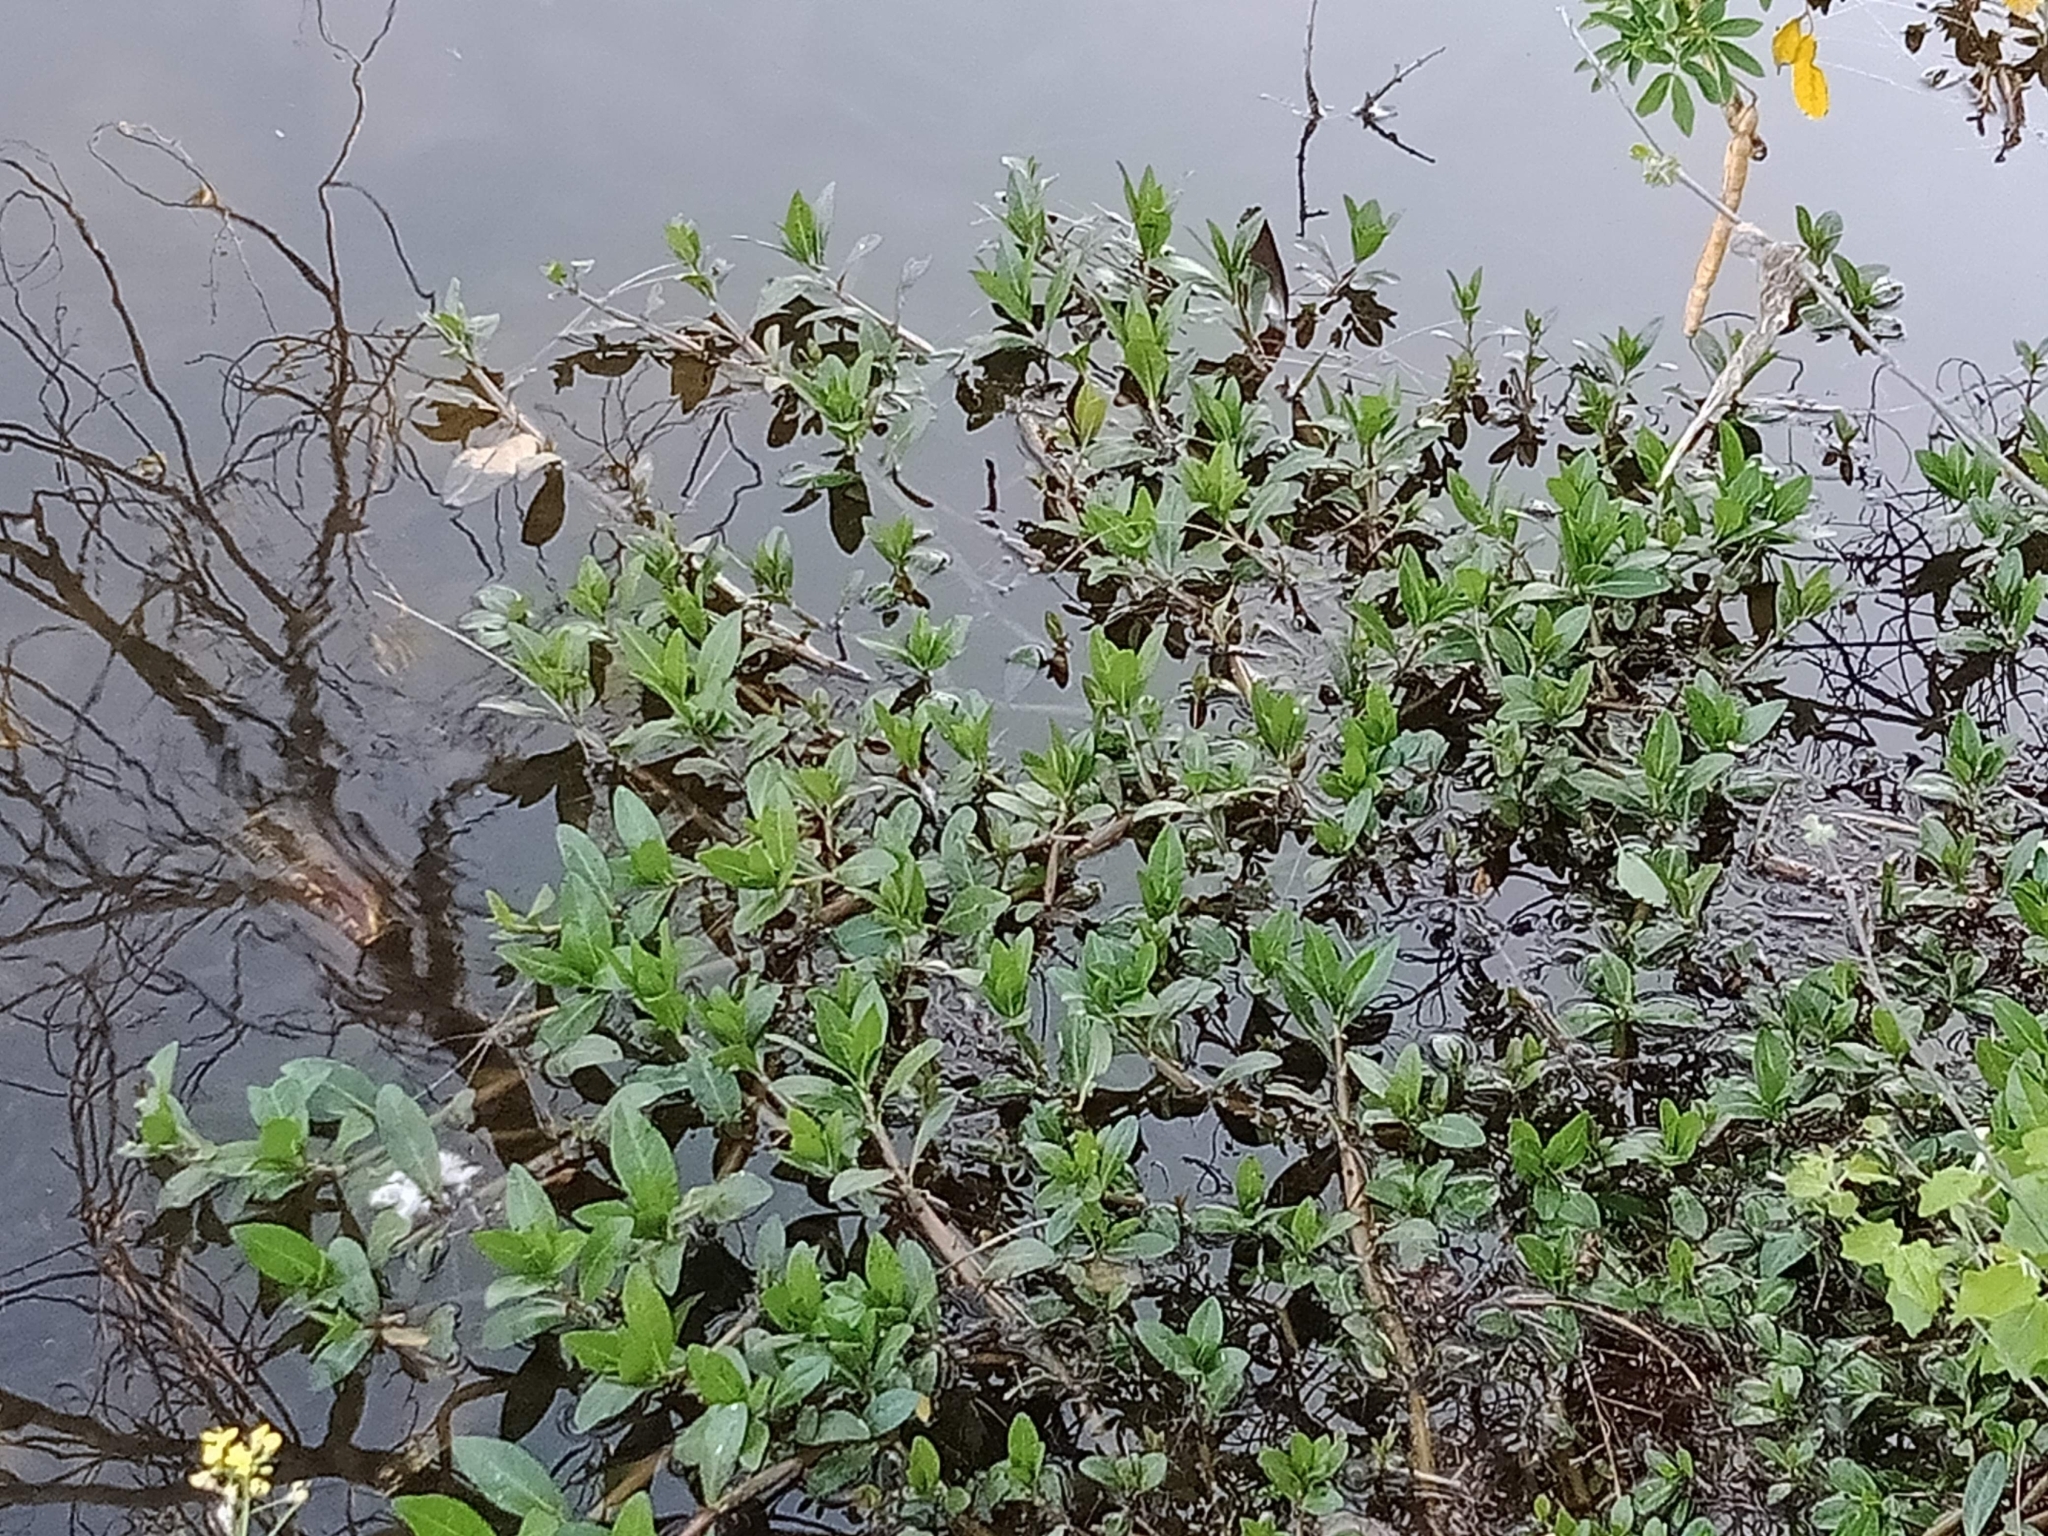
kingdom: Plantae
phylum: Tracheophyta
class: Magnoliopsida
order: Myrtales
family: Onagraceae
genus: Ludwigia
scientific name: Ludwigia peploides
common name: Floating primrose-willow
